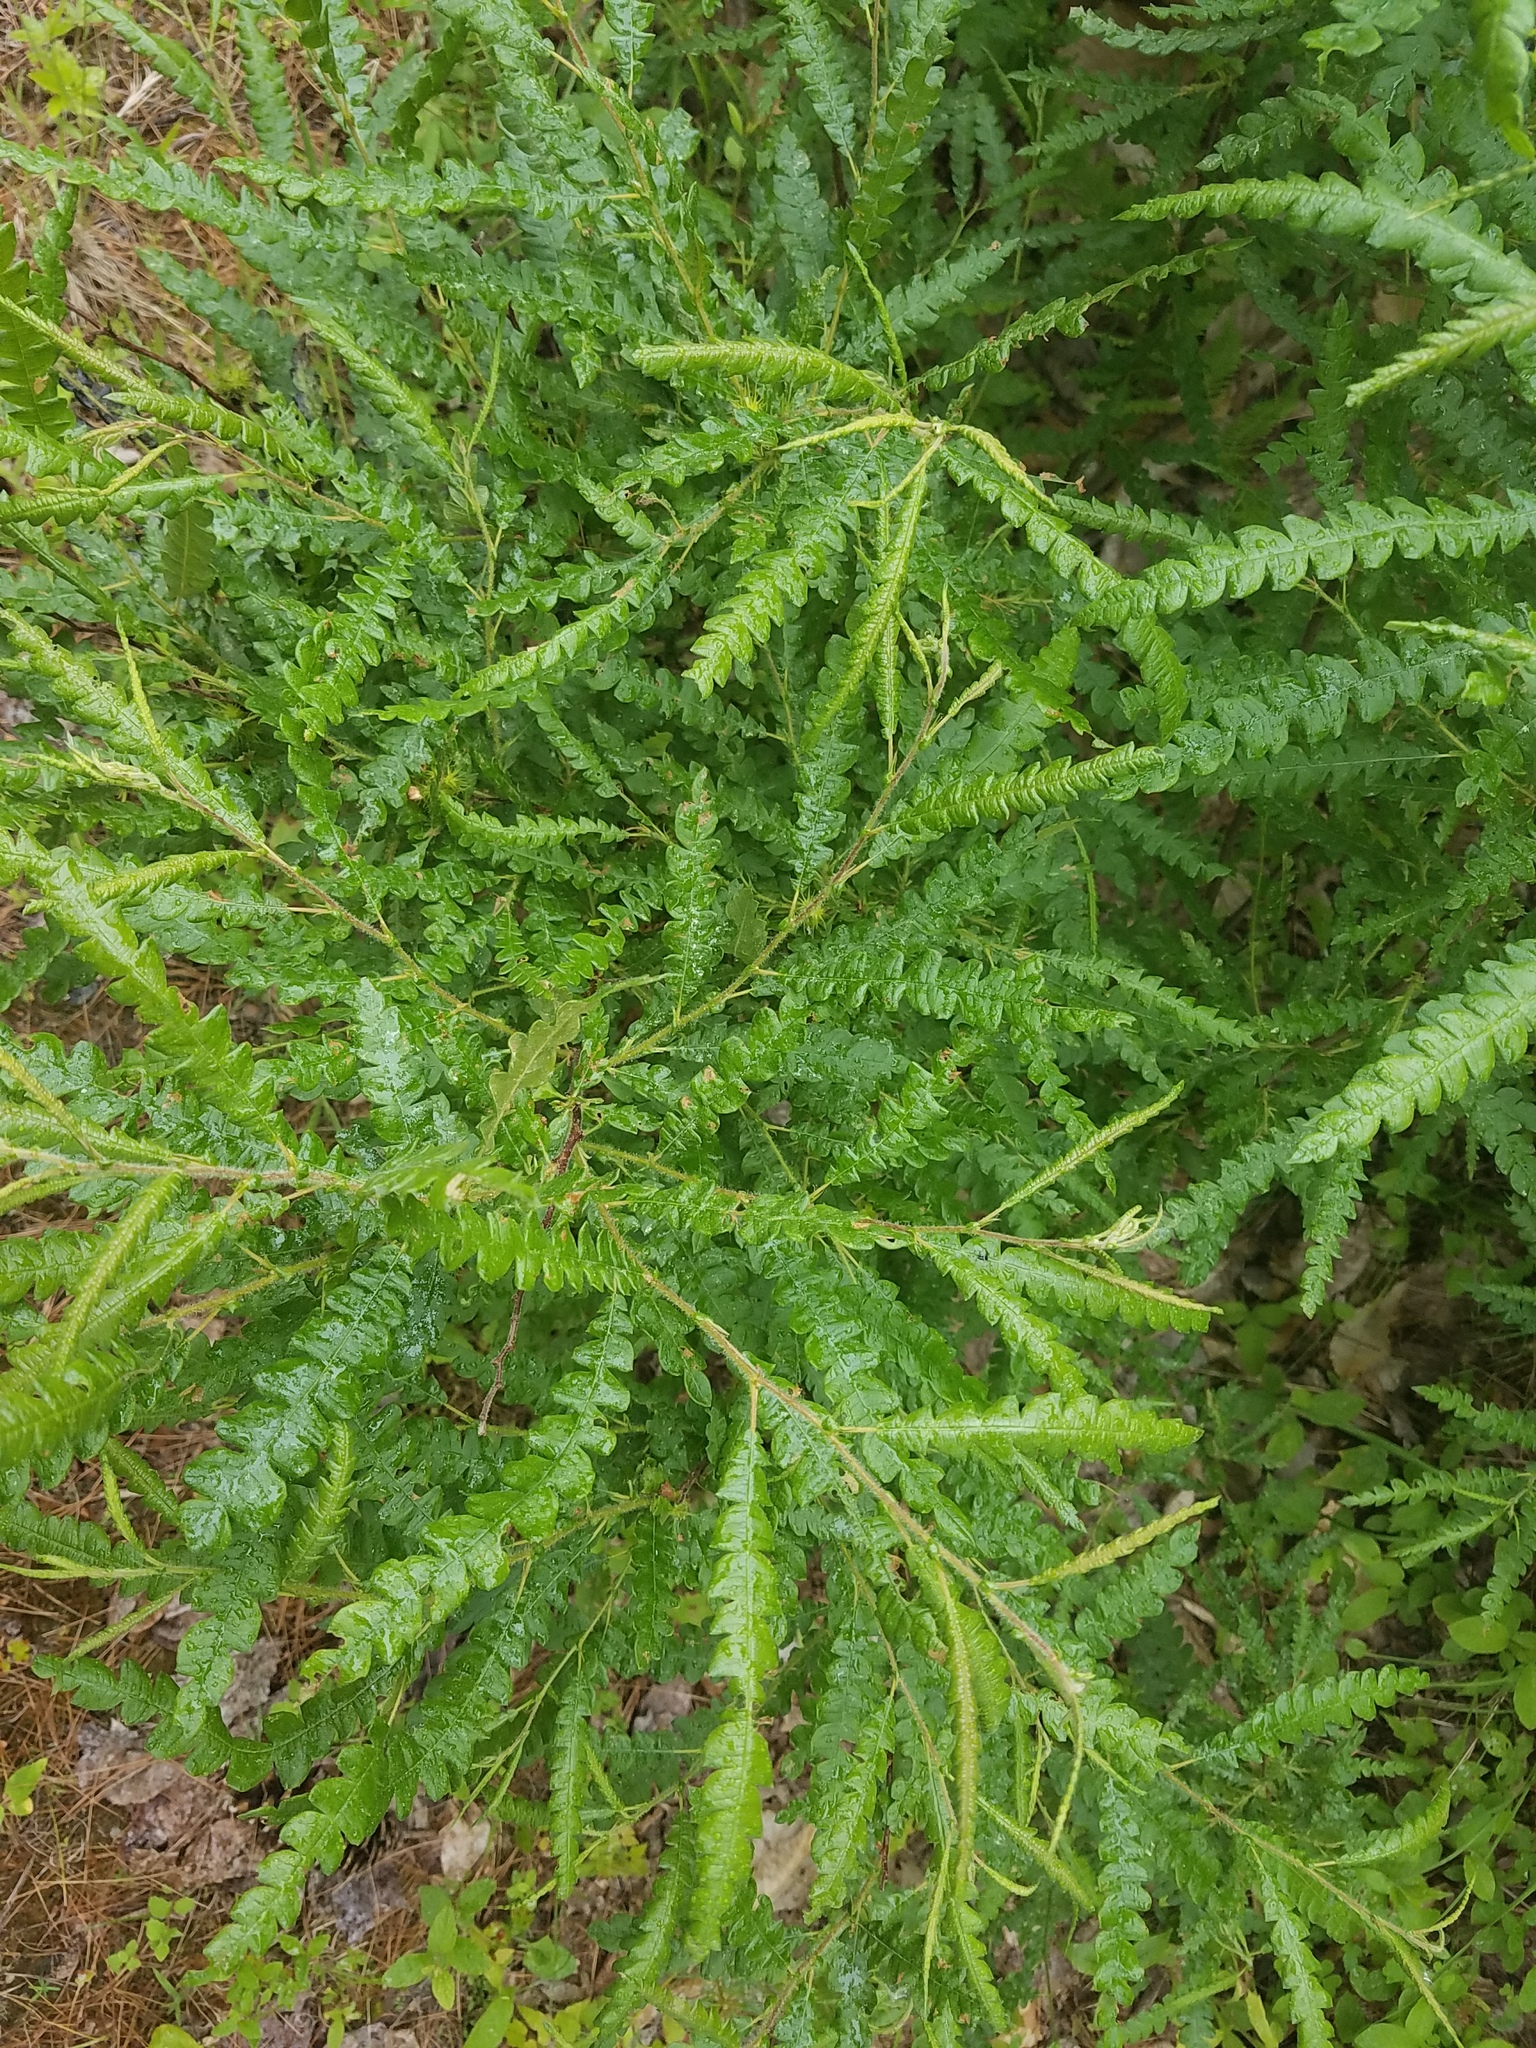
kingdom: Plantae
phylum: Tracheophyta
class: Magnoliopsida
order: Fagales
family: Myricaceae
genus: Comptonia
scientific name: Comptonia peregrina
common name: Sweet-fern
